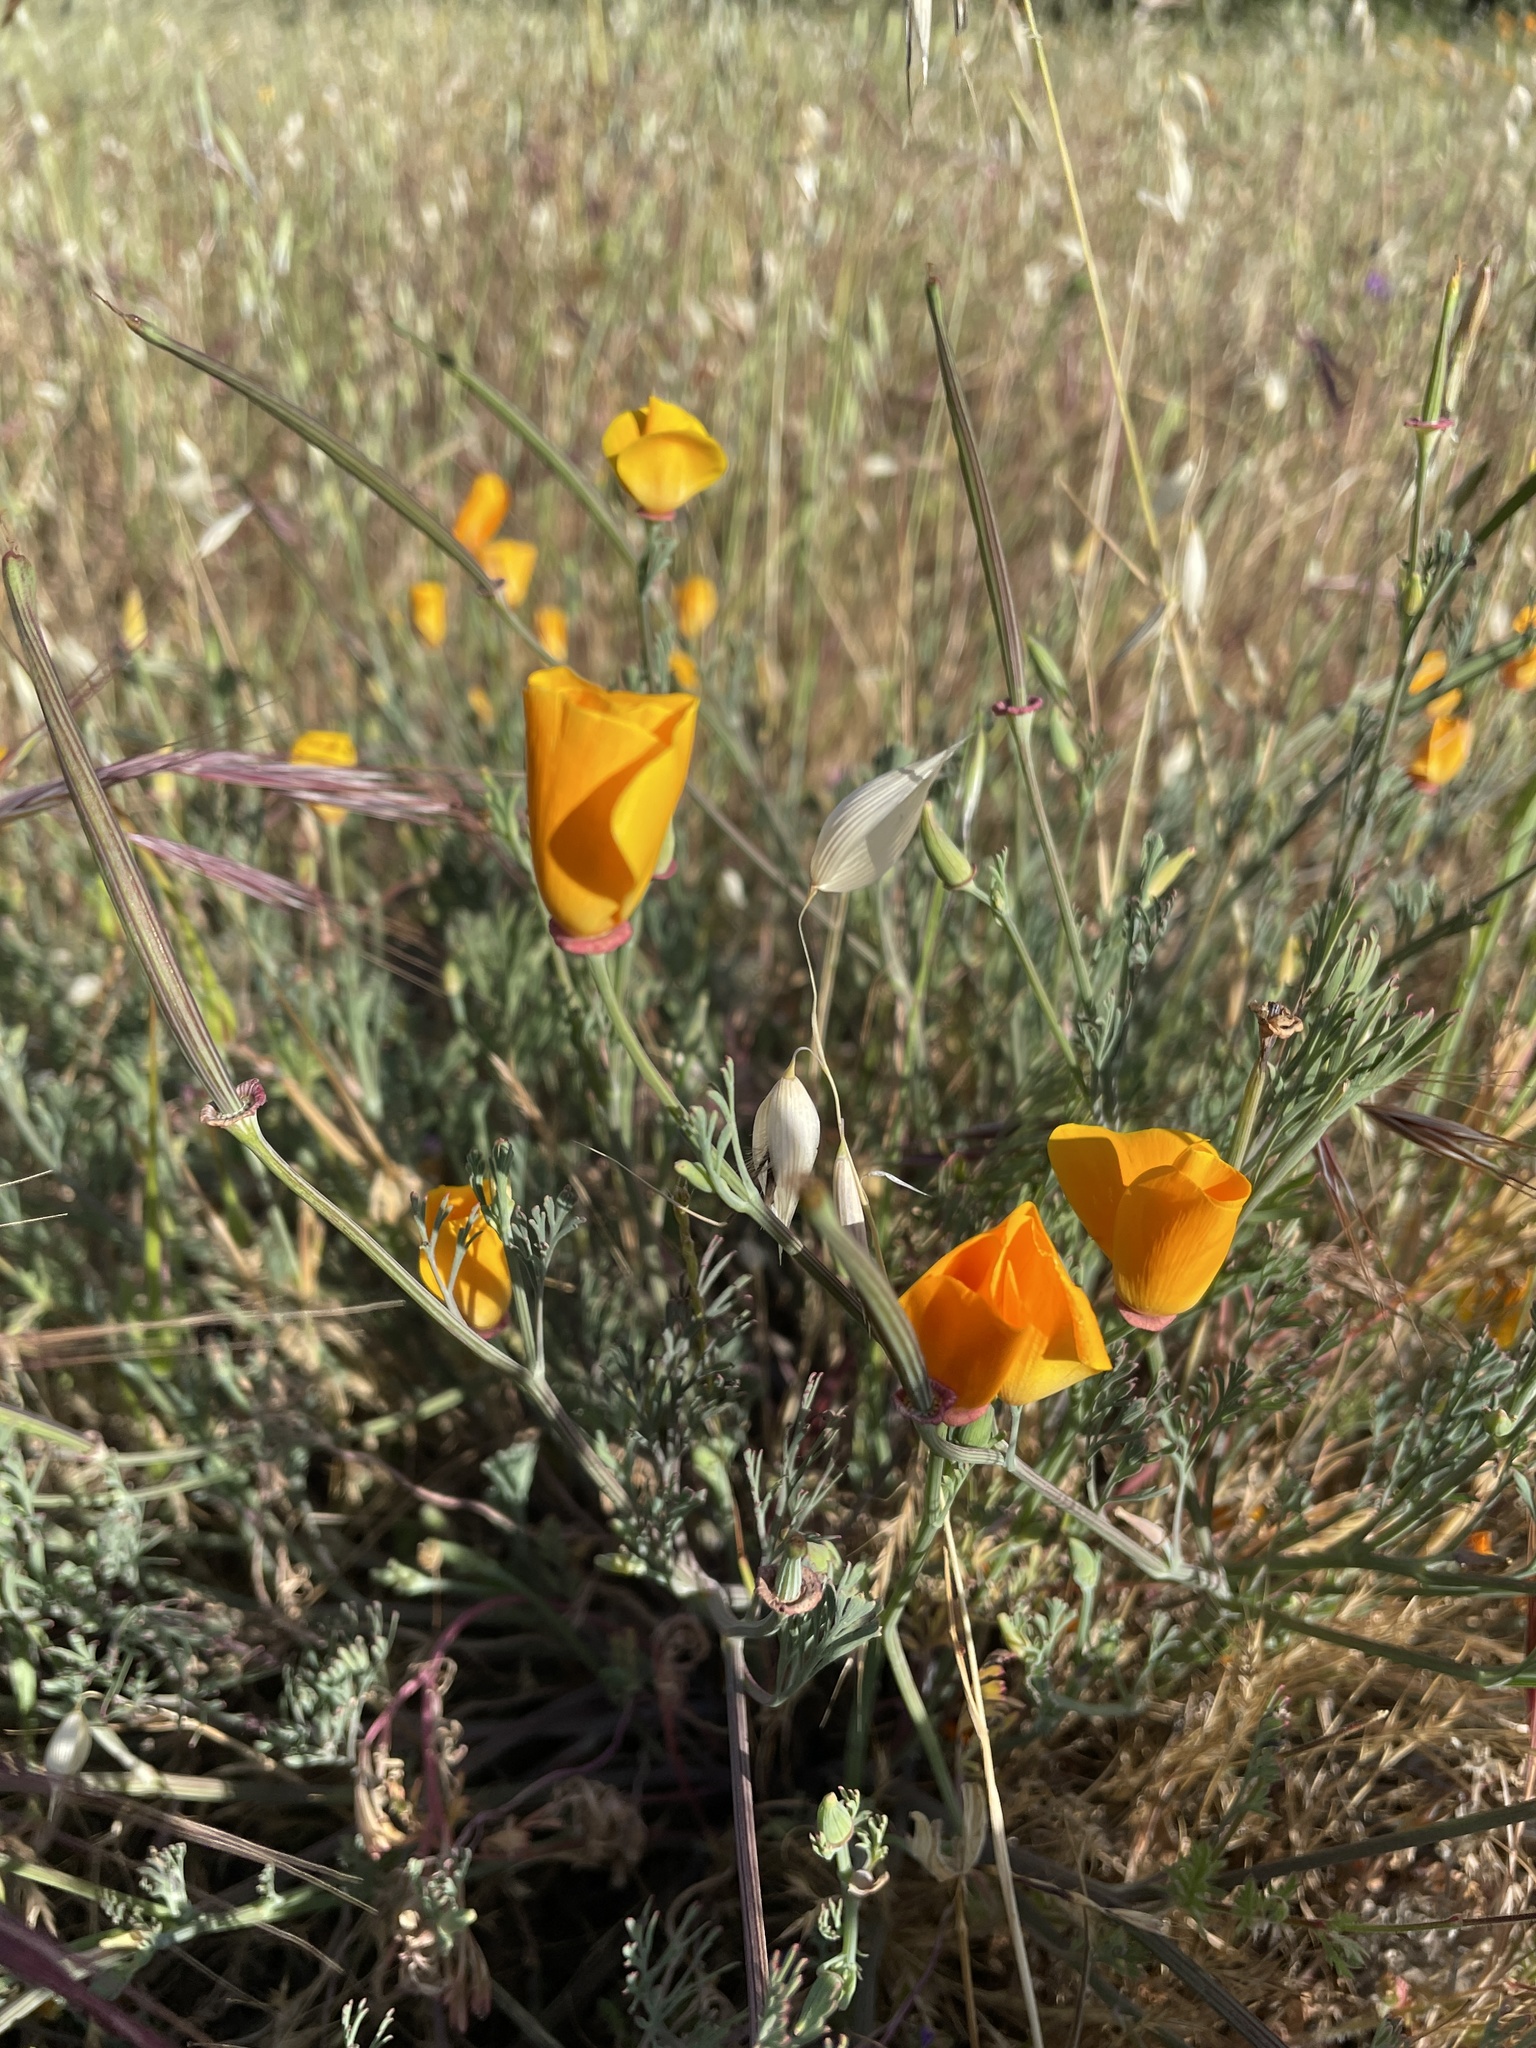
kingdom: Plantae
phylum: Tracheophyta
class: Magnoliopsida
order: Ranunculales
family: Papaveraceae
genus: Eschscholzia
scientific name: Eschscholzia californica
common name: California poppy
